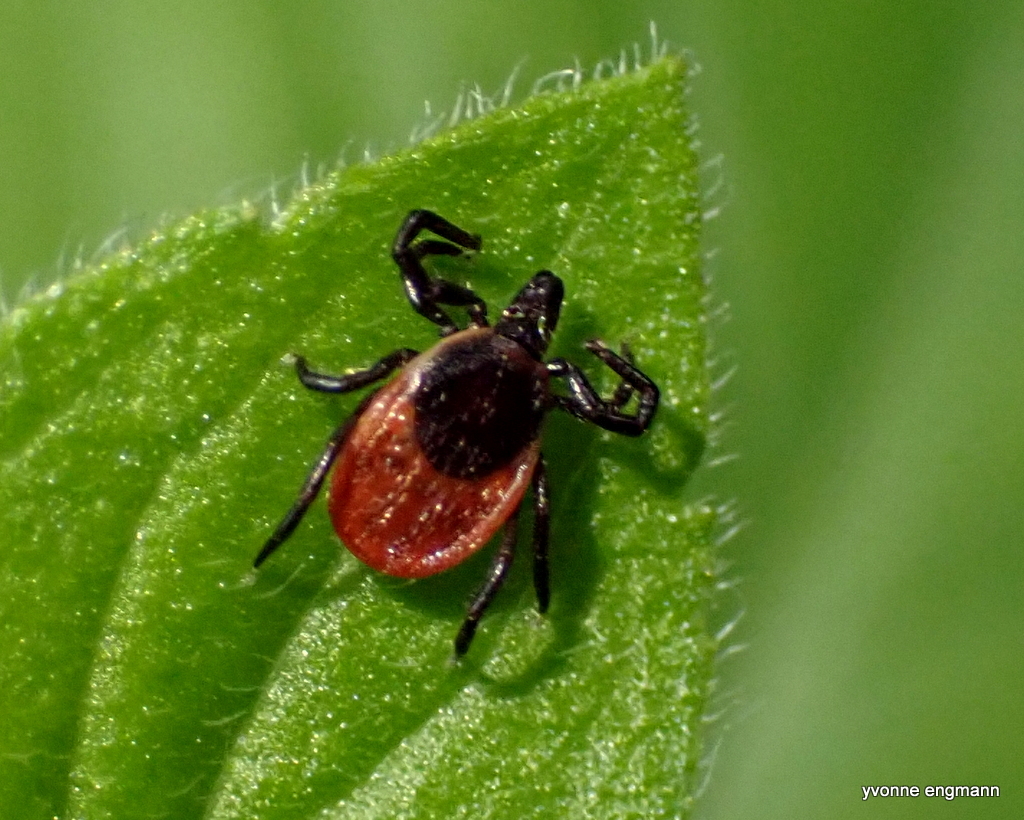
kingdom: Animalia
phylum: Arthropoda
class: Arachnida
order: Ixodida
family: Ixodidae
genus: Ixodes
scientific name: Ixodes ricinus
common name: Castor bean tick
